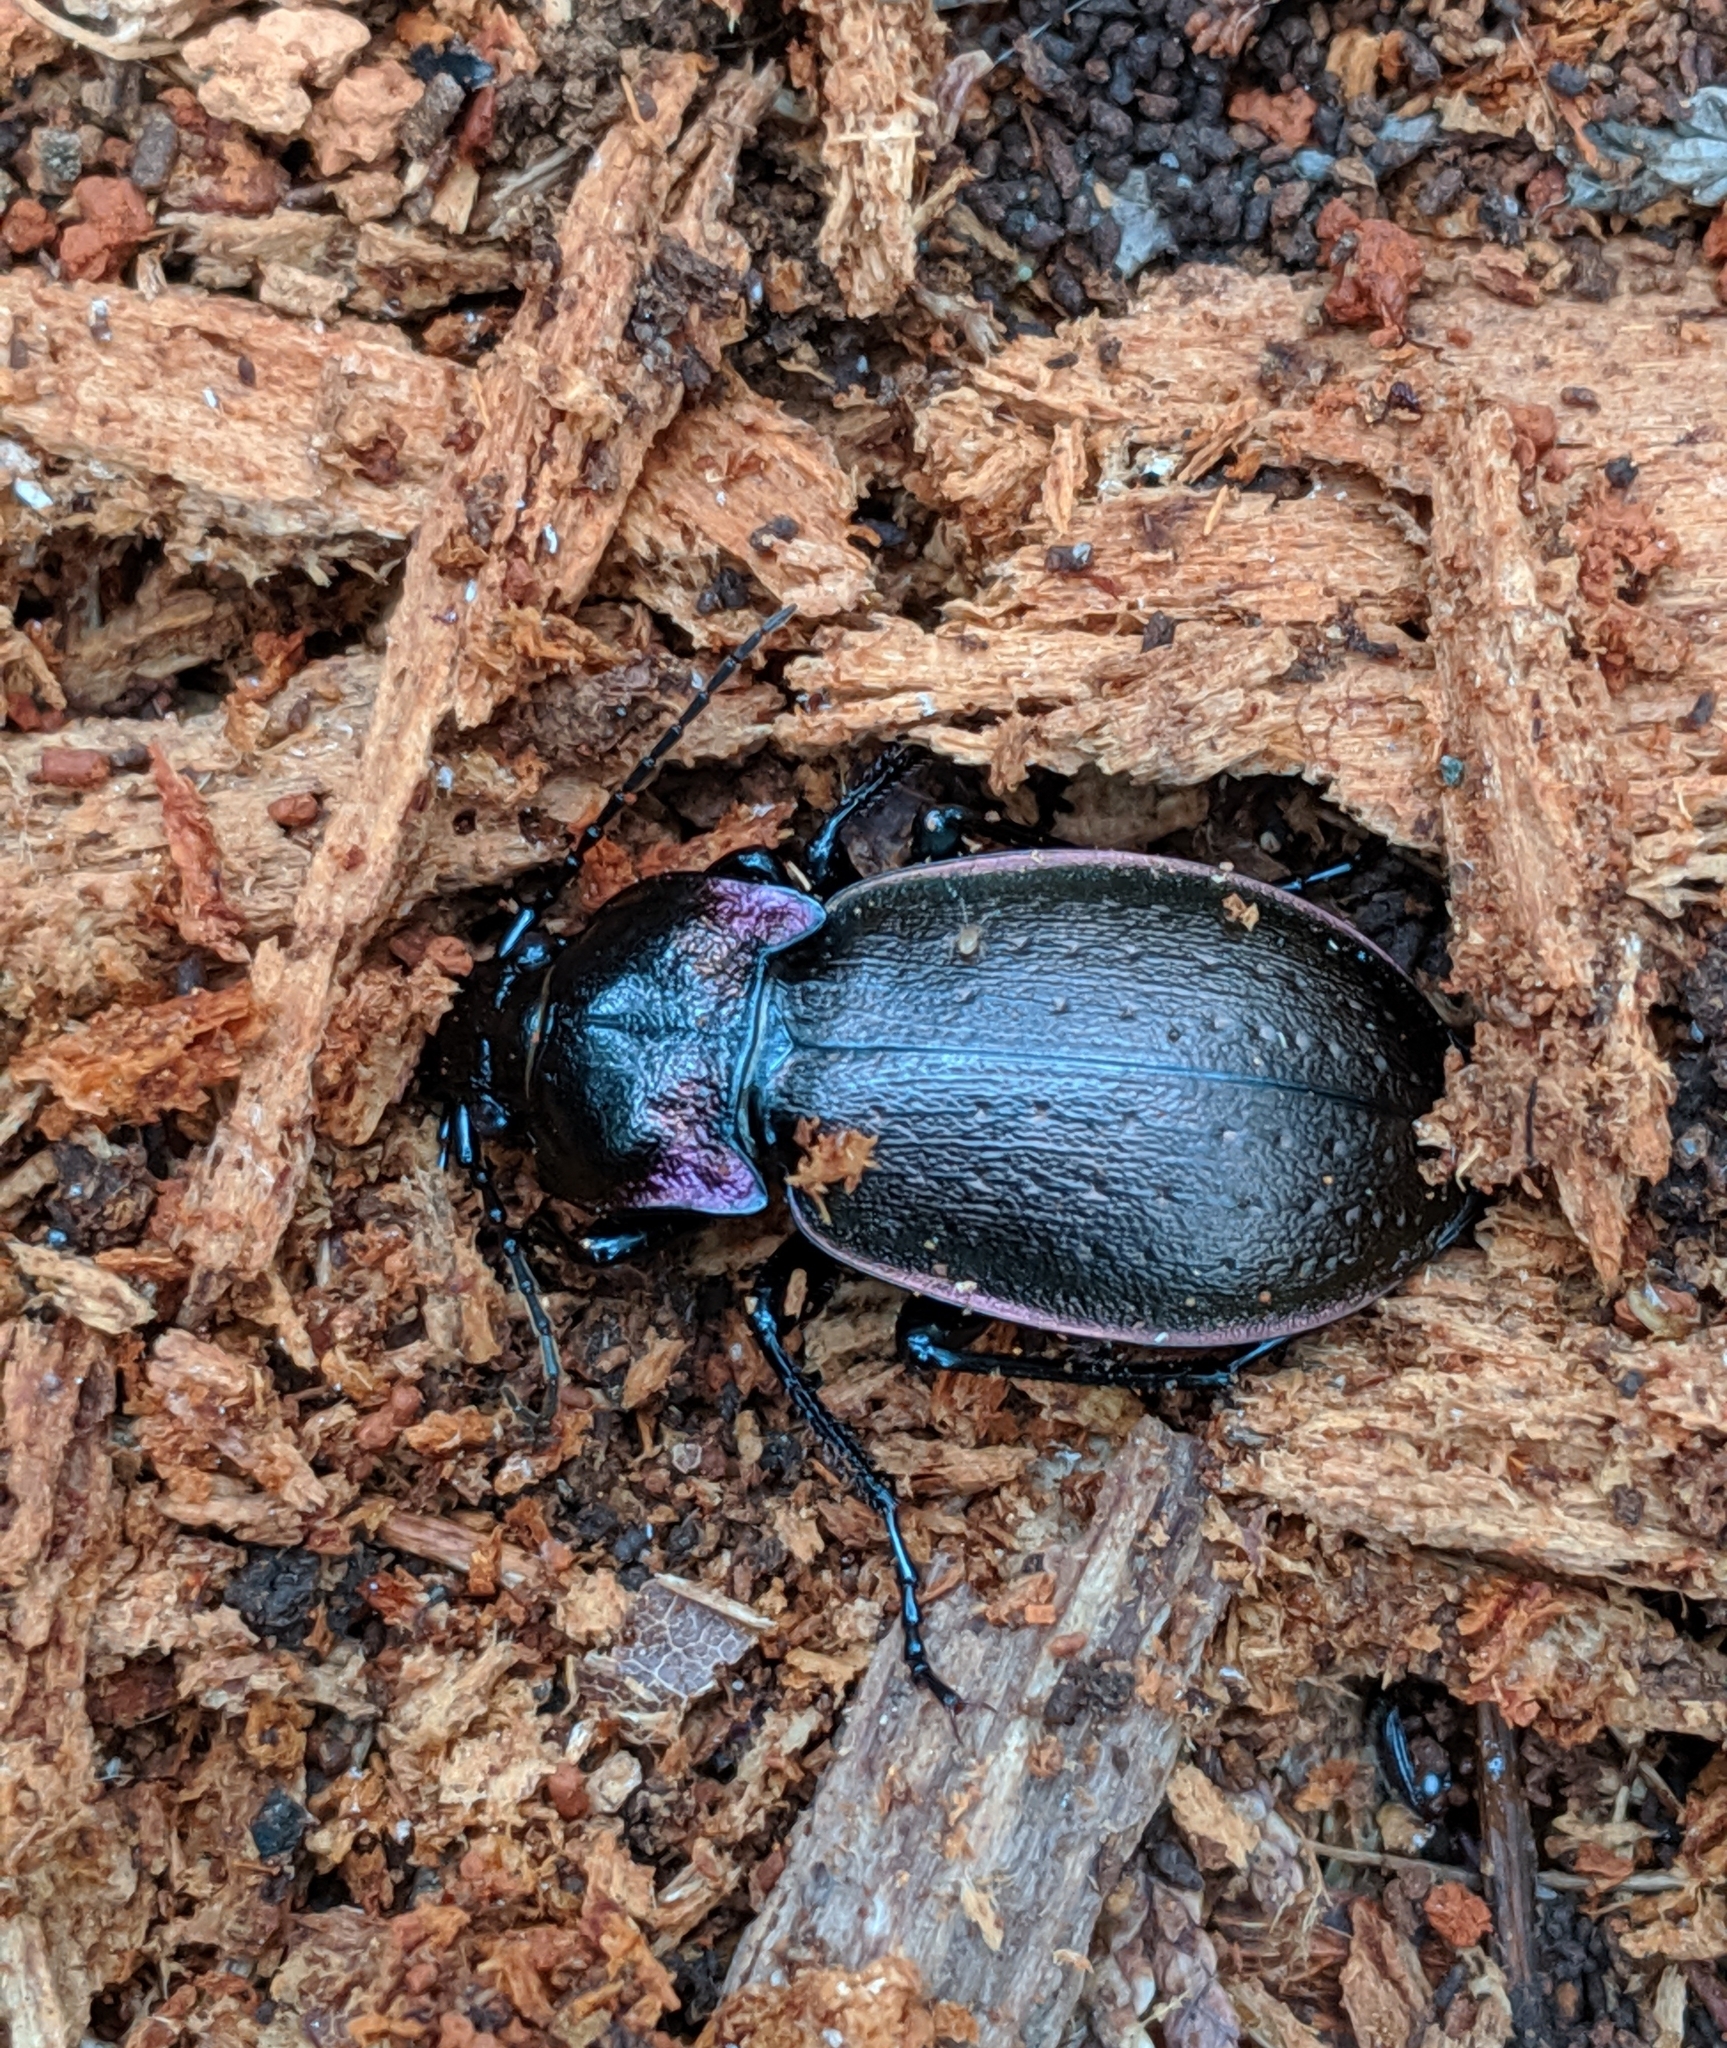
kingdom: Animalia
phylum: Arthropoda
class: Insecta
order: Coleoptera
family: Carabidae
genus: Carabus
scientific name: Carabus nemoralis
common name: European ground beetle
